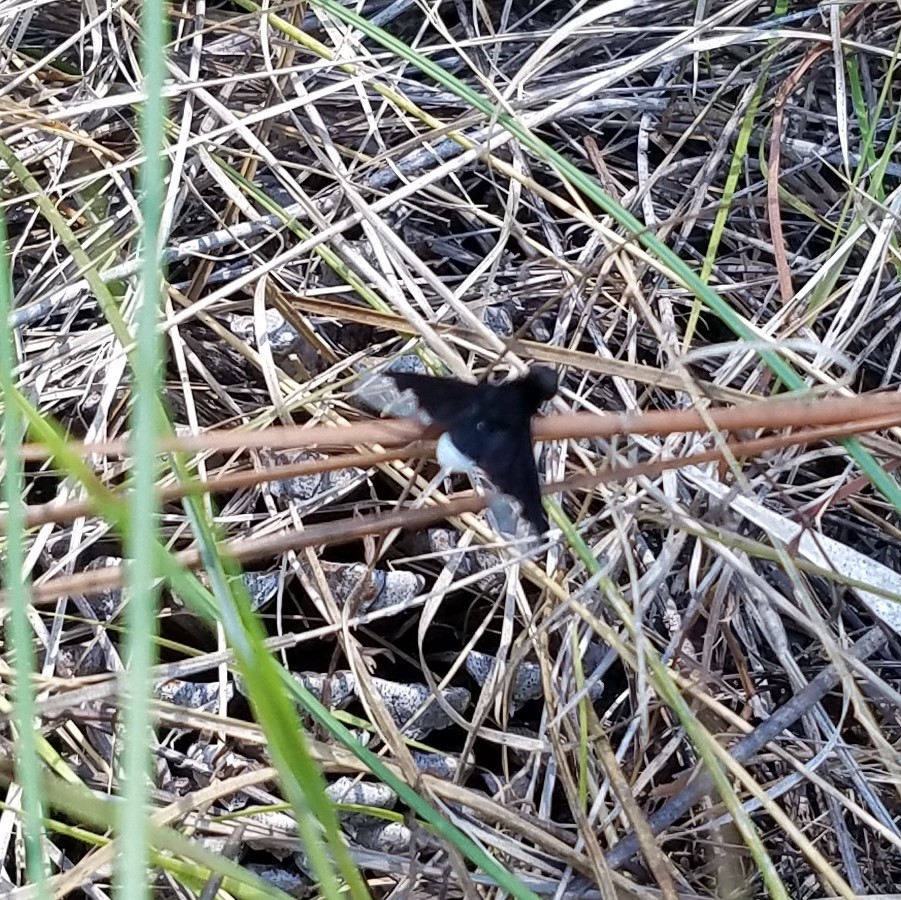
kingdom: Animalia
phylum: Arthropoda
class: Insecta
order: Diptera
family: Bombyliidae
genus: Anthrax
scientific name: Anthrax analis
